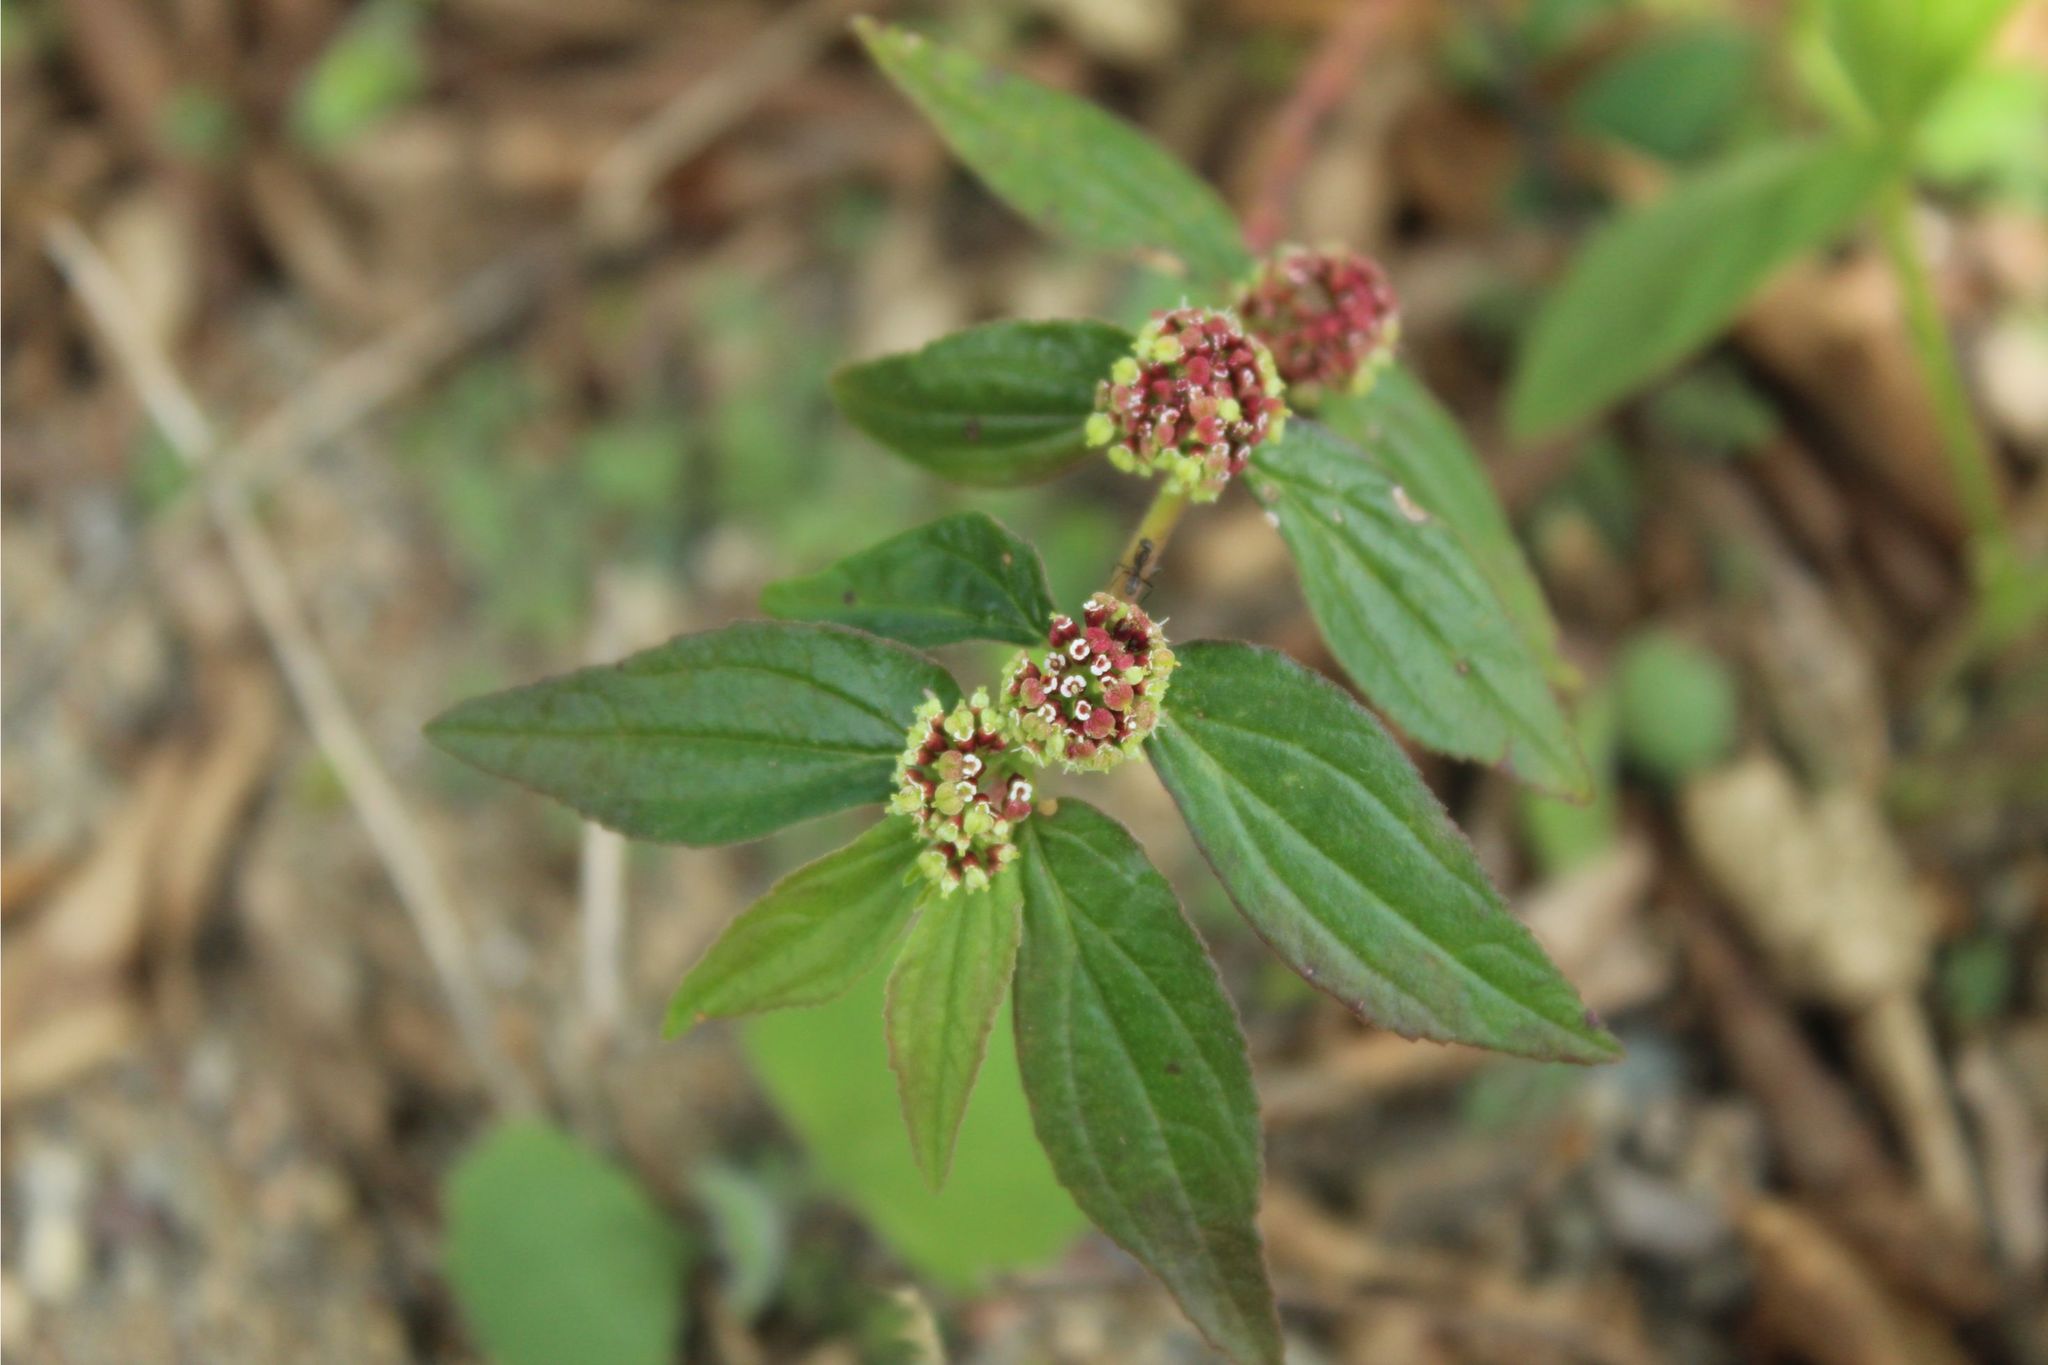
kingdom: Plantae
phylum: Tracheophyta
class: Magnoliopsida
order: Malpighiales
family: Euphorbiaceae
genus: Euphorbia
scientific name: Euphorbia hirta
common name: Pillpod sandmat
